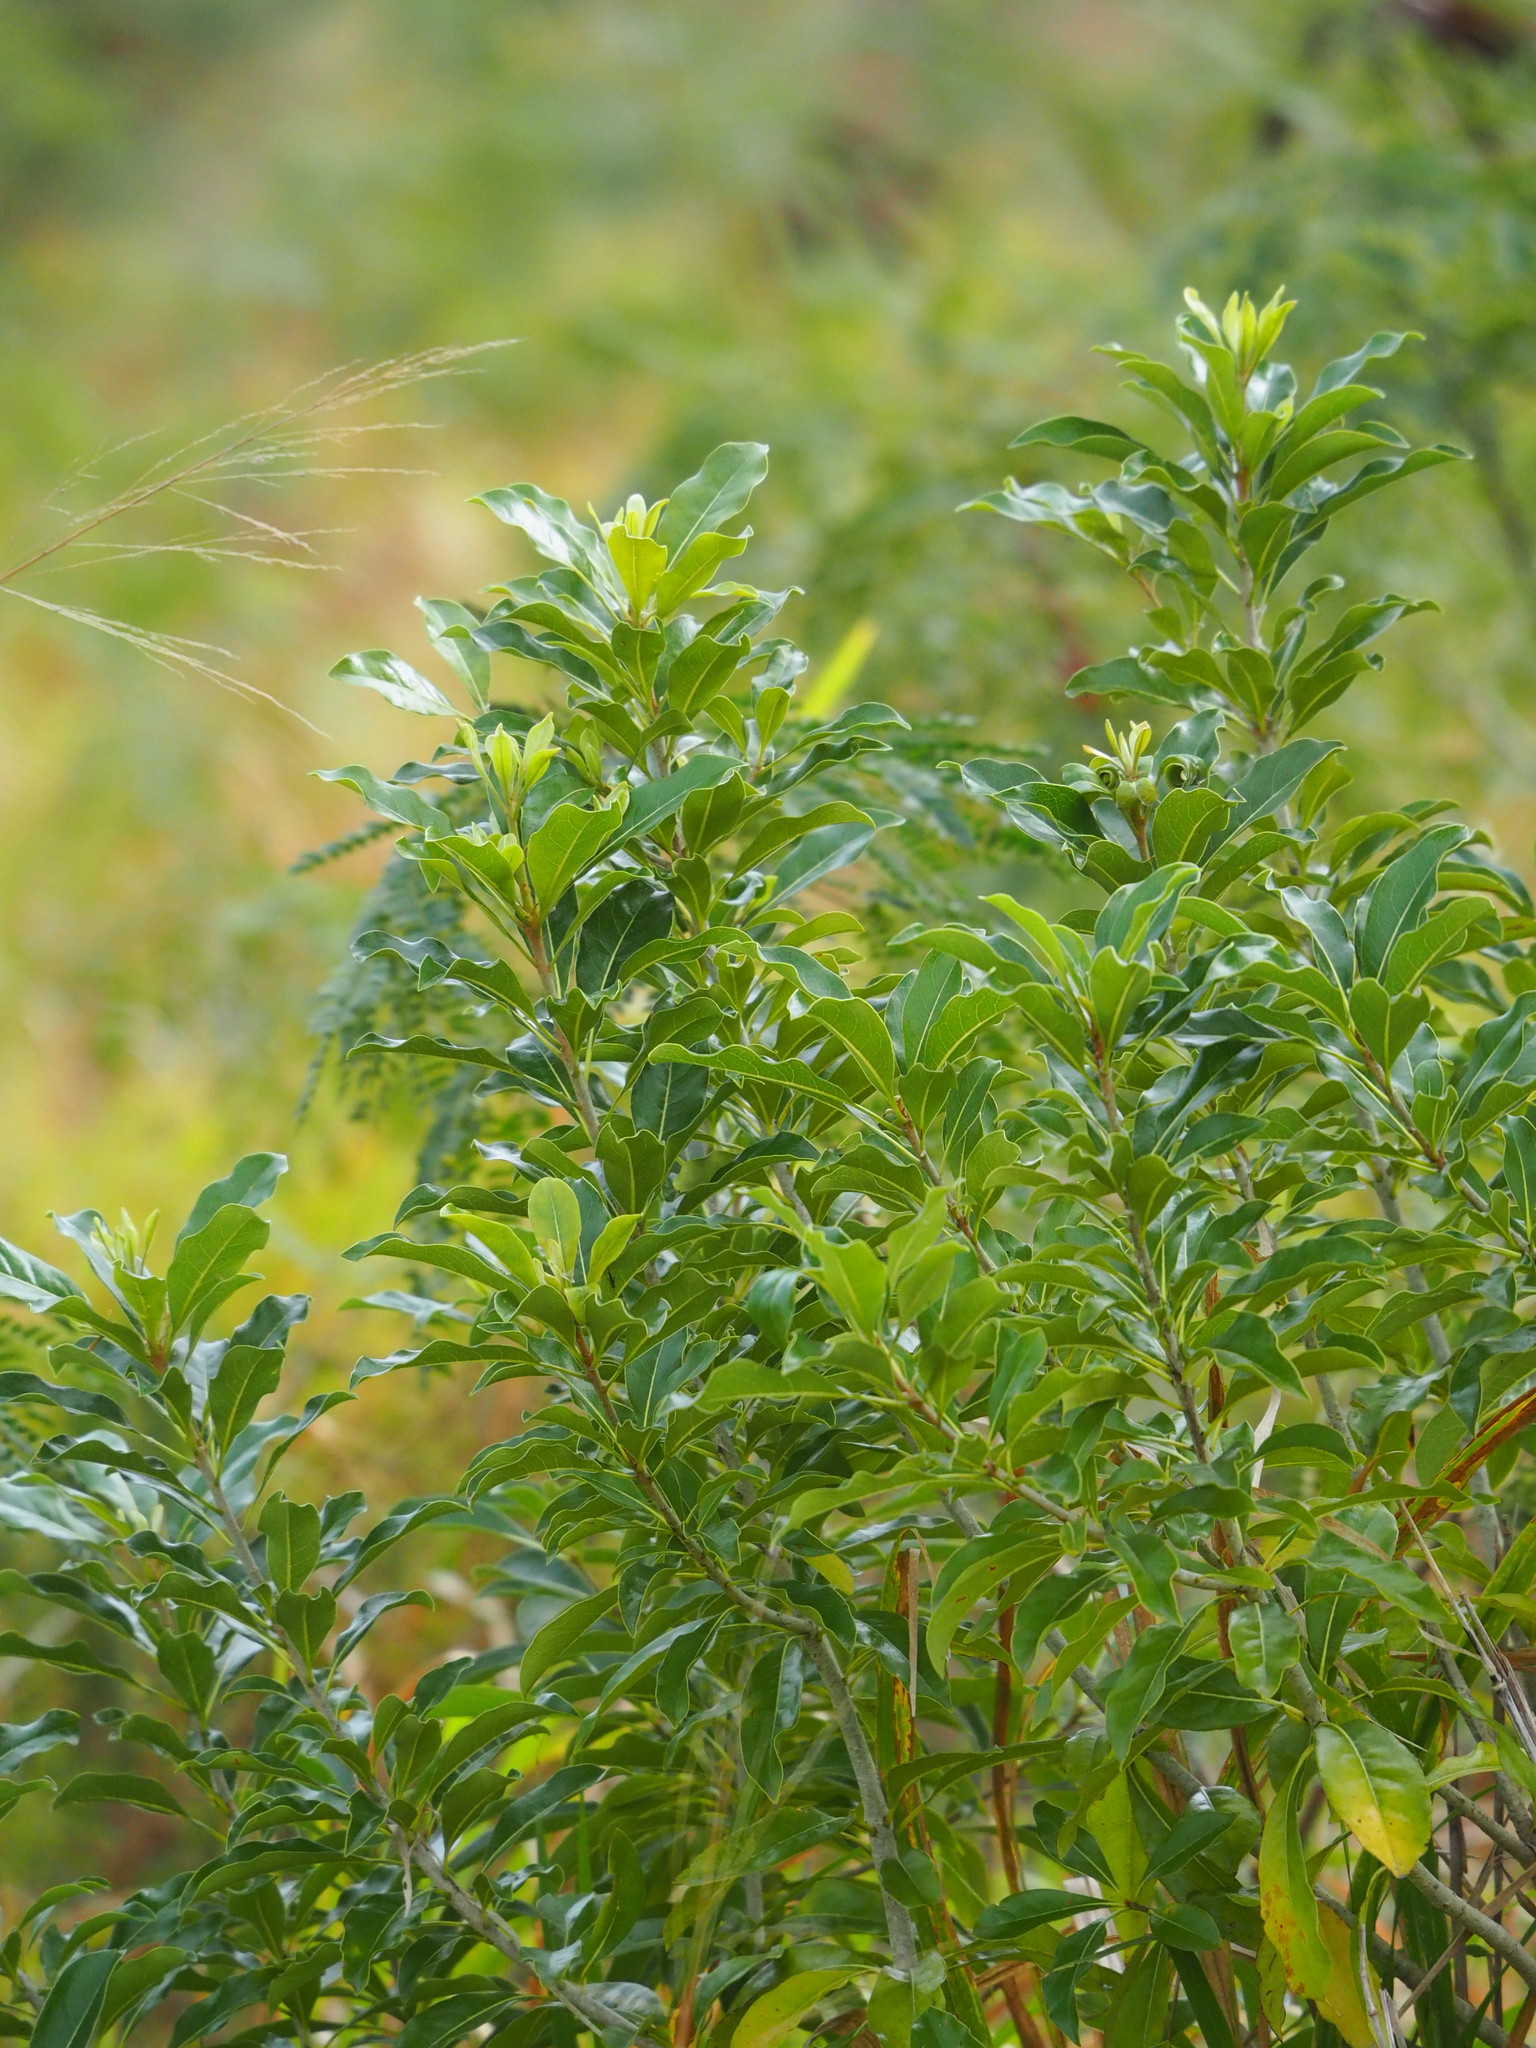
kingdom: Plantae
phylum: Tracheophyta
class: Magnoliopsida
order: Apiales
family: Pittosporaceae
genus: Pittosporum
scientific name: Pittosporum pentandrum
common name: Taiwanese cheesewood
